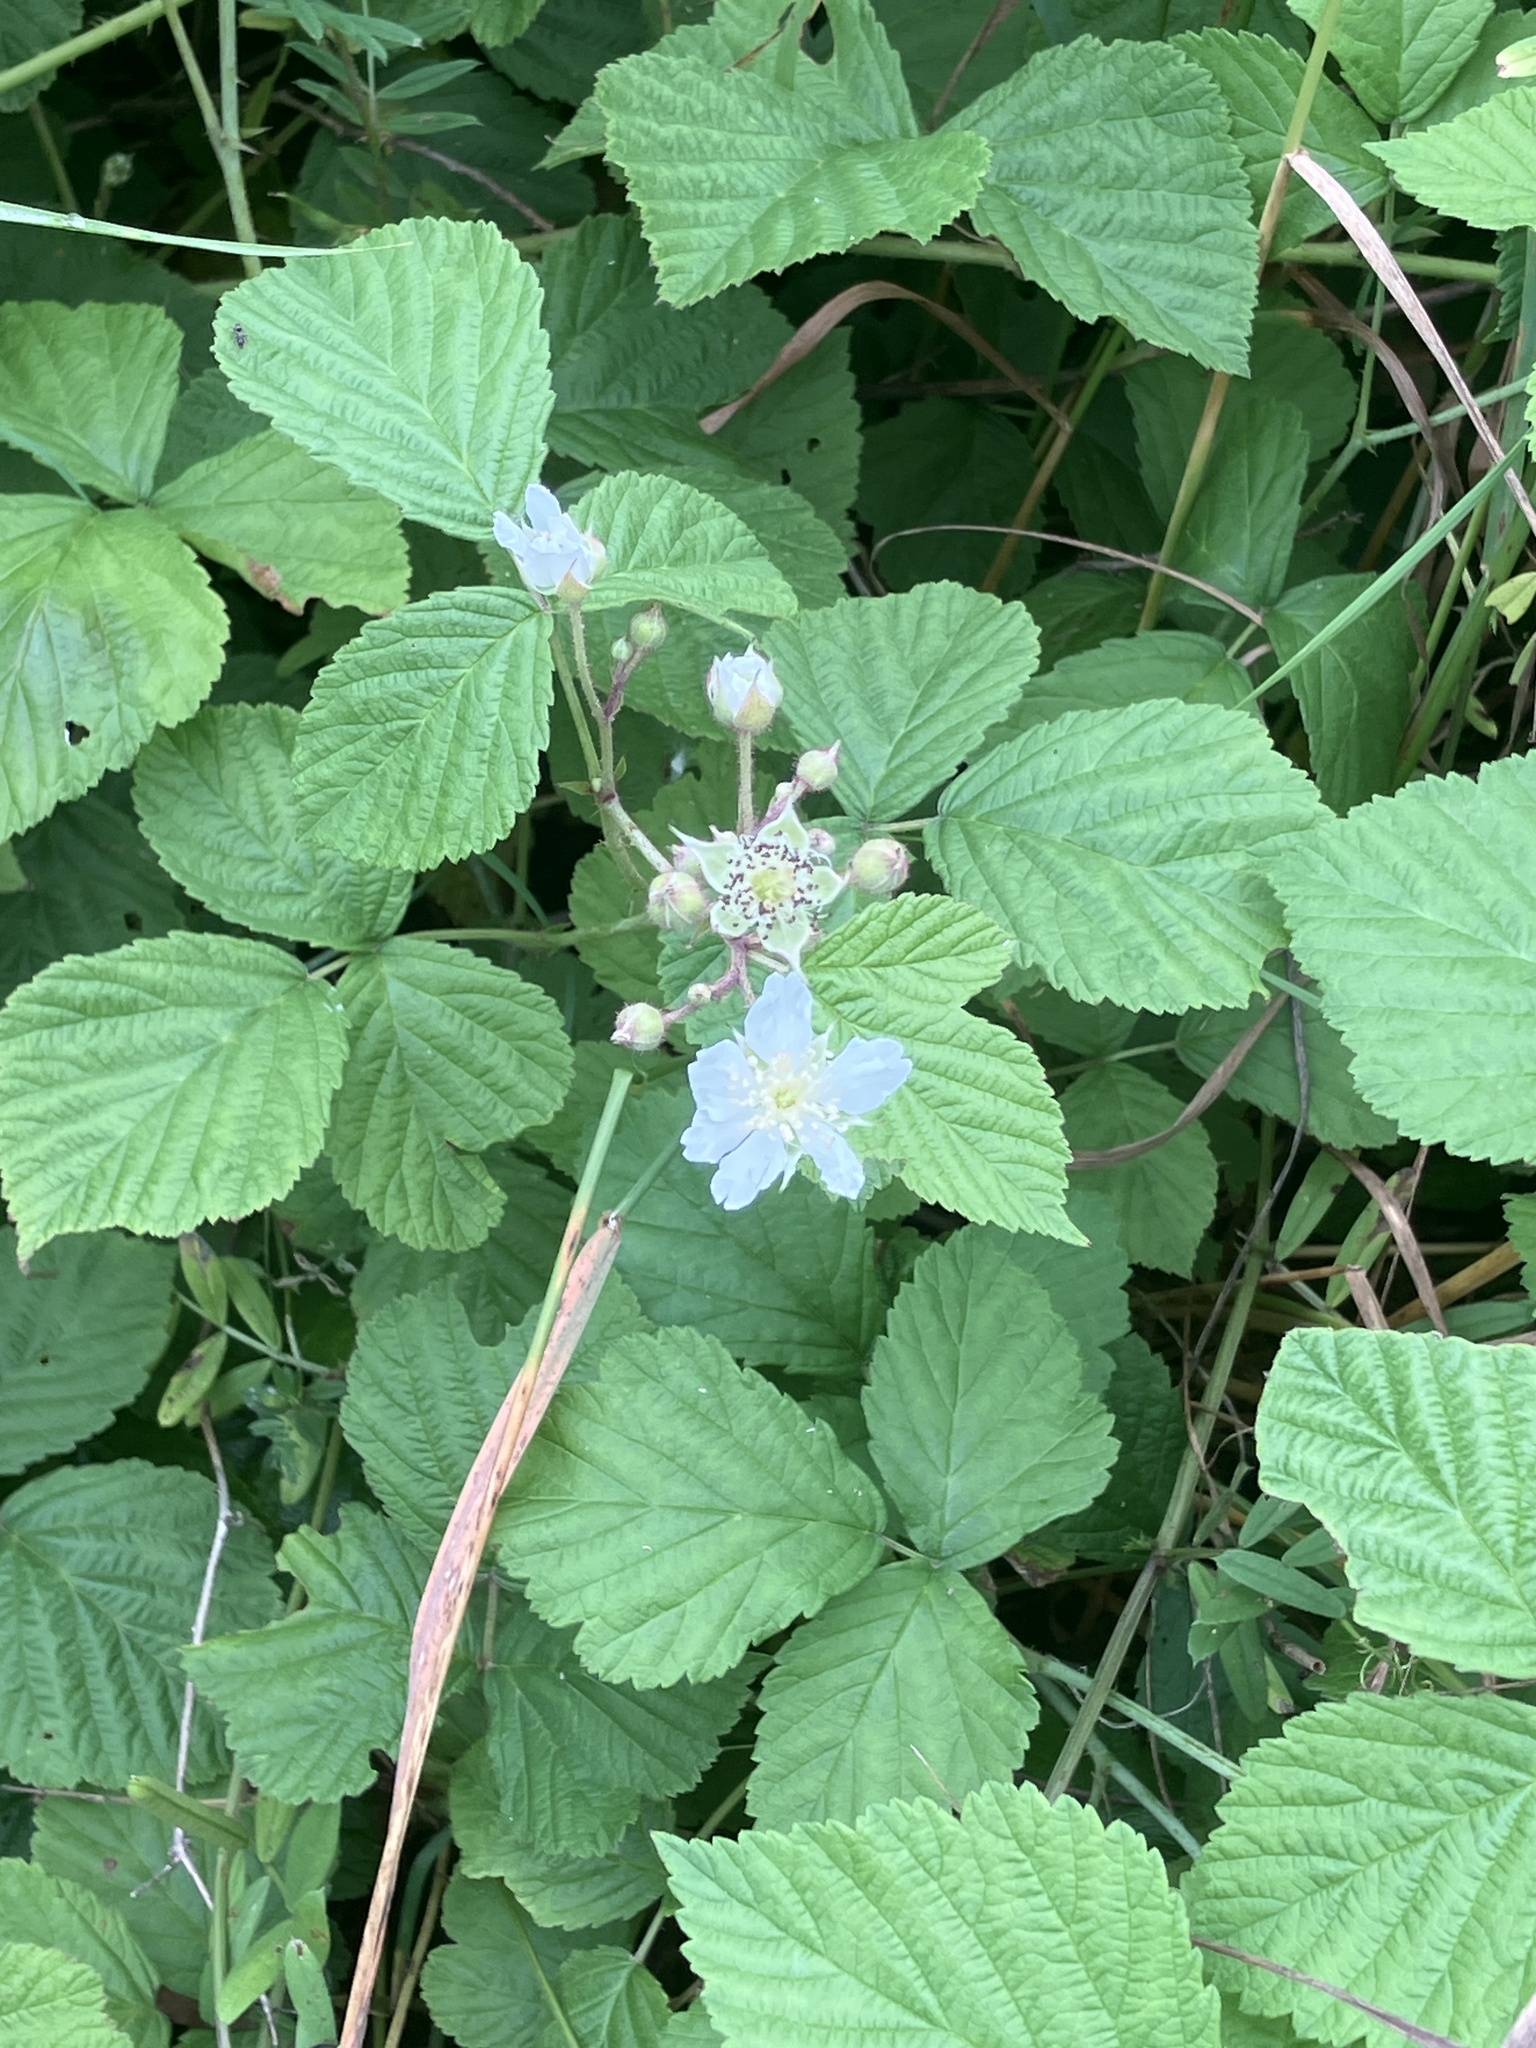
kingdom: Plantae
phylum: Tracheophyta
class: Magnoliopsida
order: Rosales
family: Rosaceae
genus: Rubus
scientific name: Rubus caesius
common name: Dewberry
